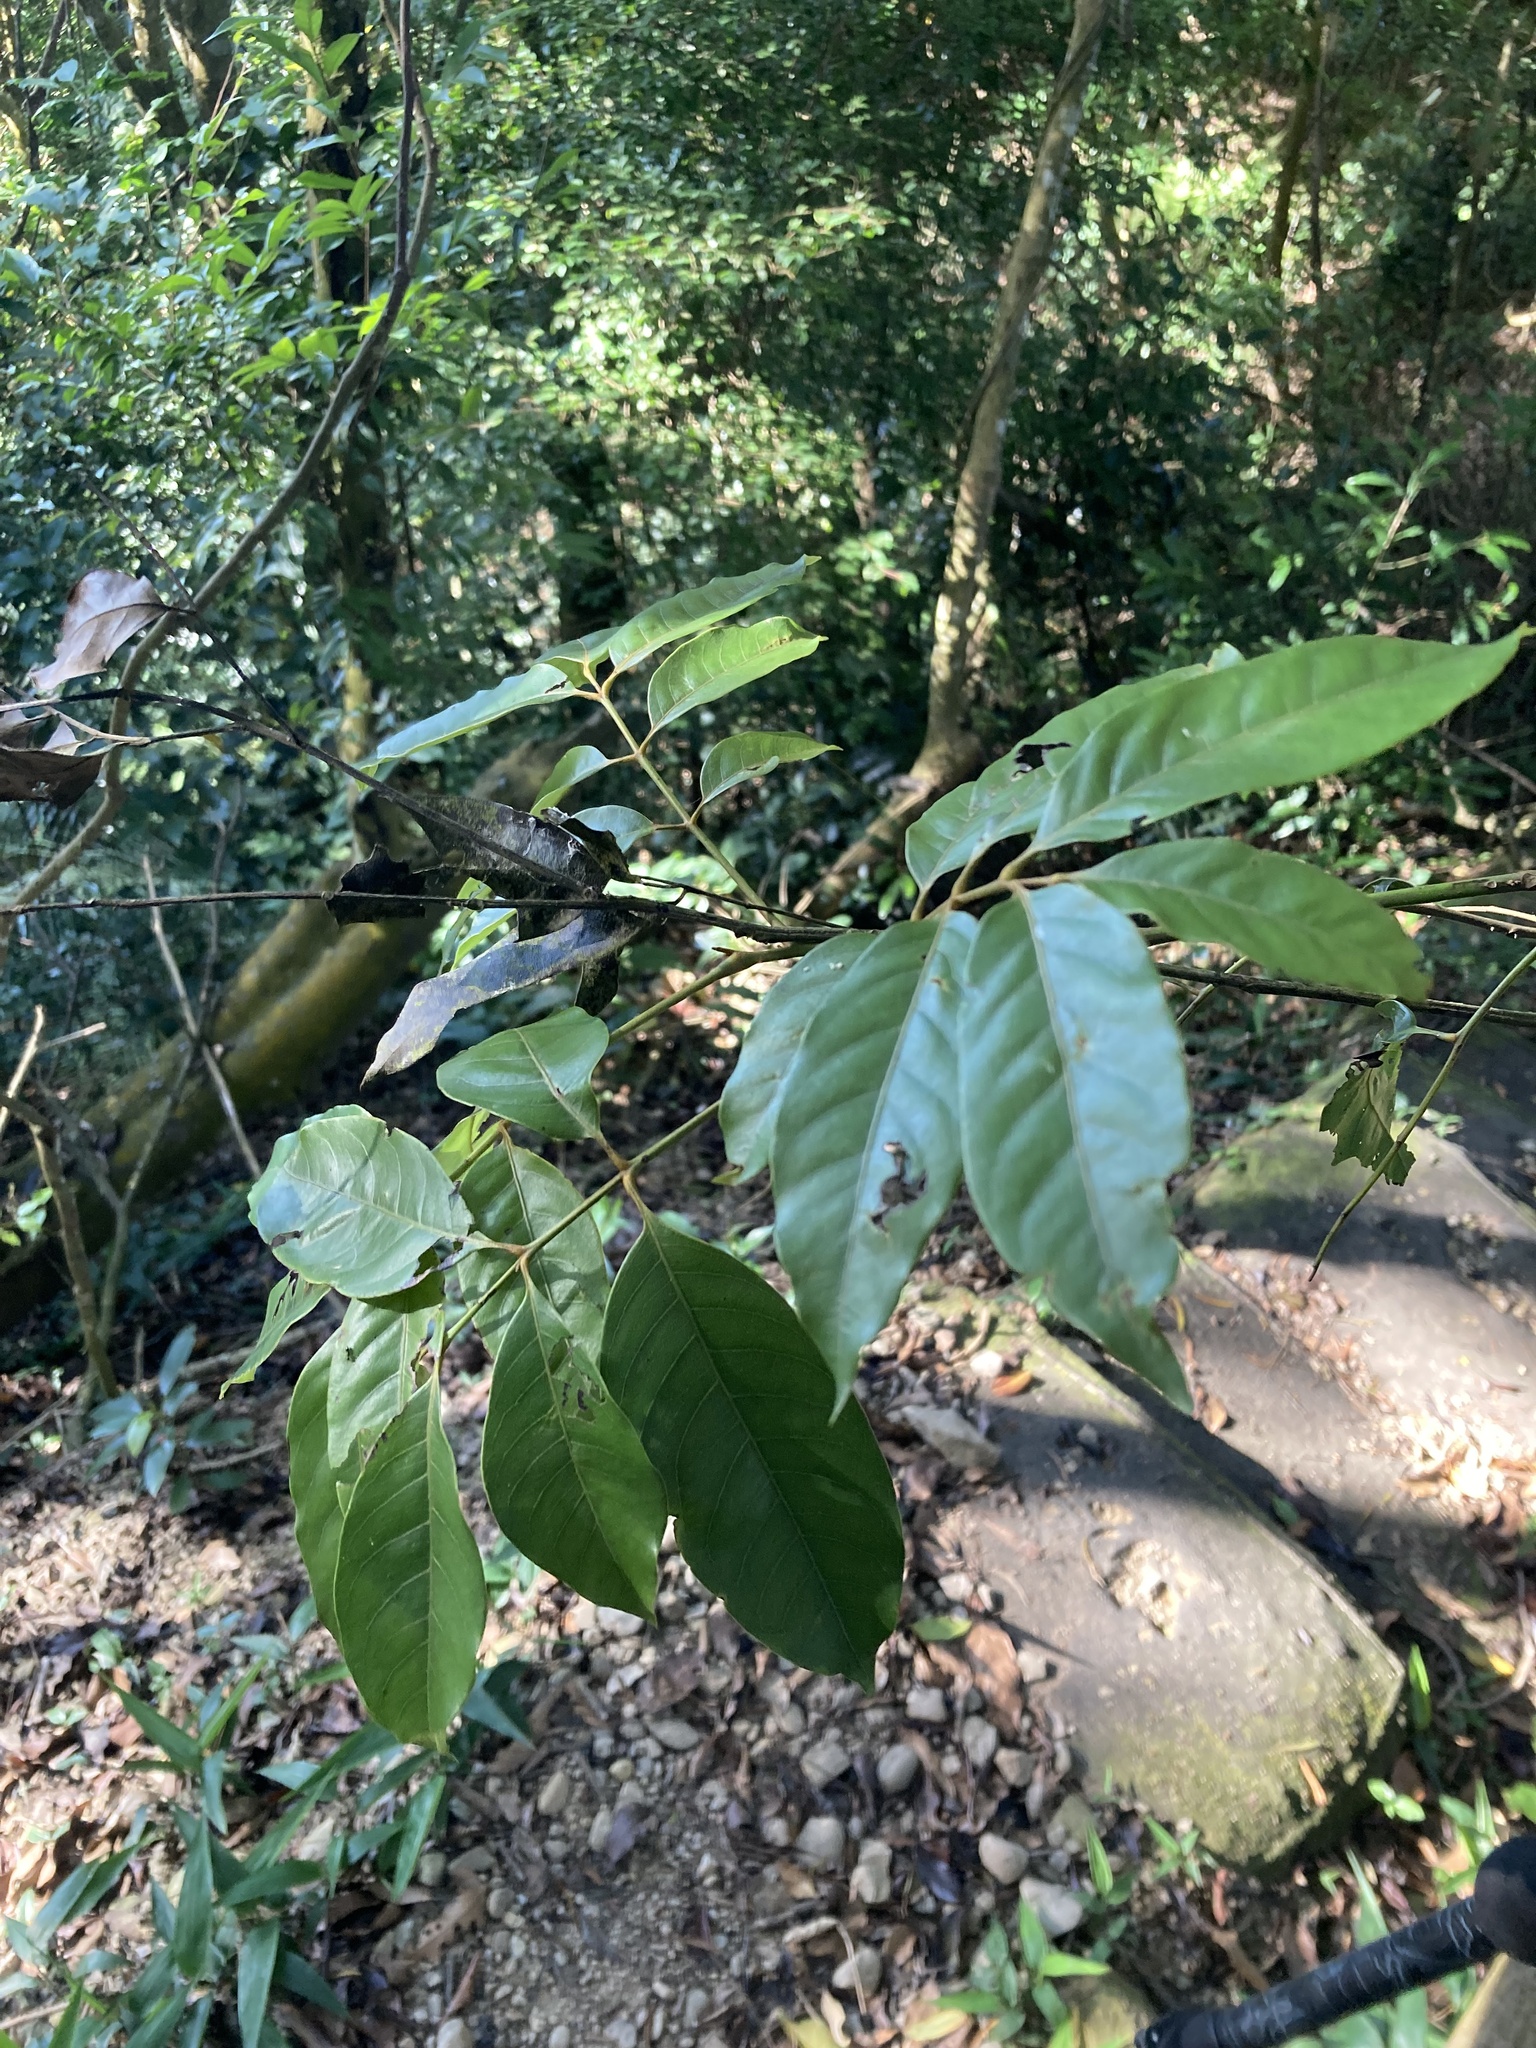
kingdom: Plantae
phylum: Tracheophyta
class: Magnoliopsida
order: Fagales
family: Juglandaceae
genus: Engelhardia
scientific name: Engelhardia roxburghiana
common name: Golden malay beam
